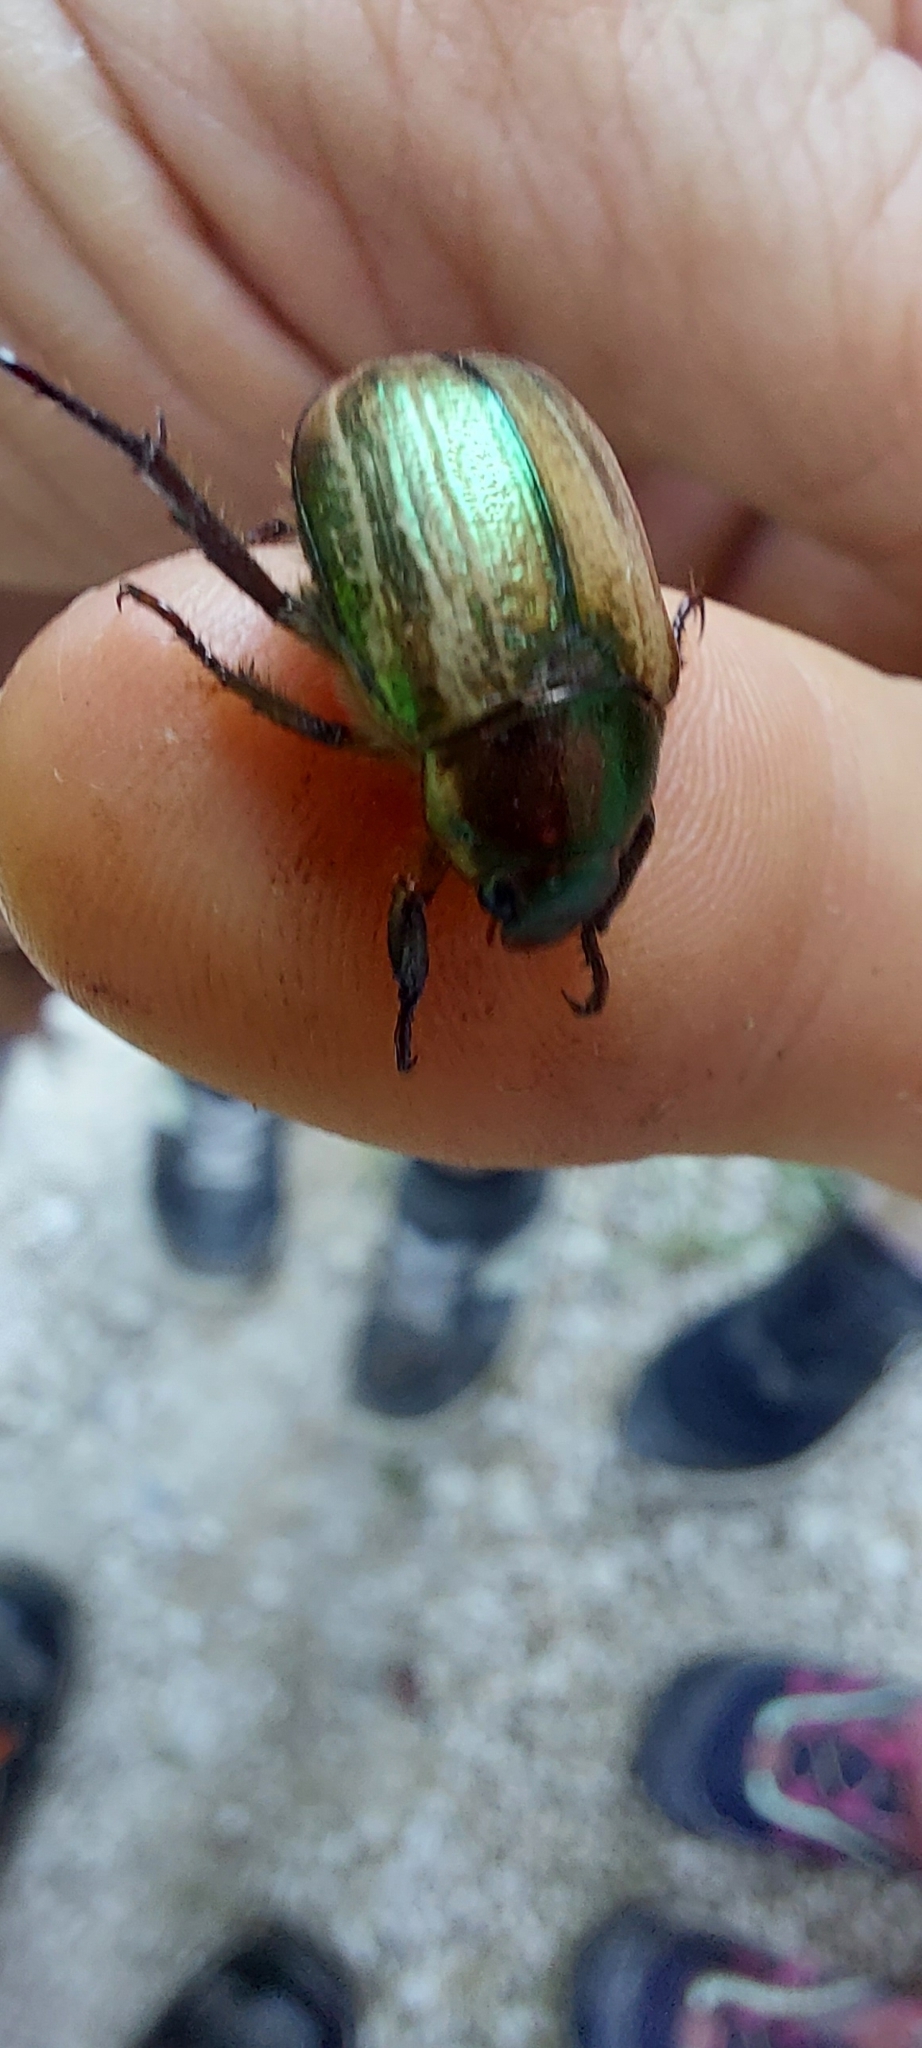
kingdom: Animalia
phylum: Arthropoda
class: Insecta
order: Coleoptera
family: Scarabaeidae
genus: Mimela
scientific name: Mimela junii
